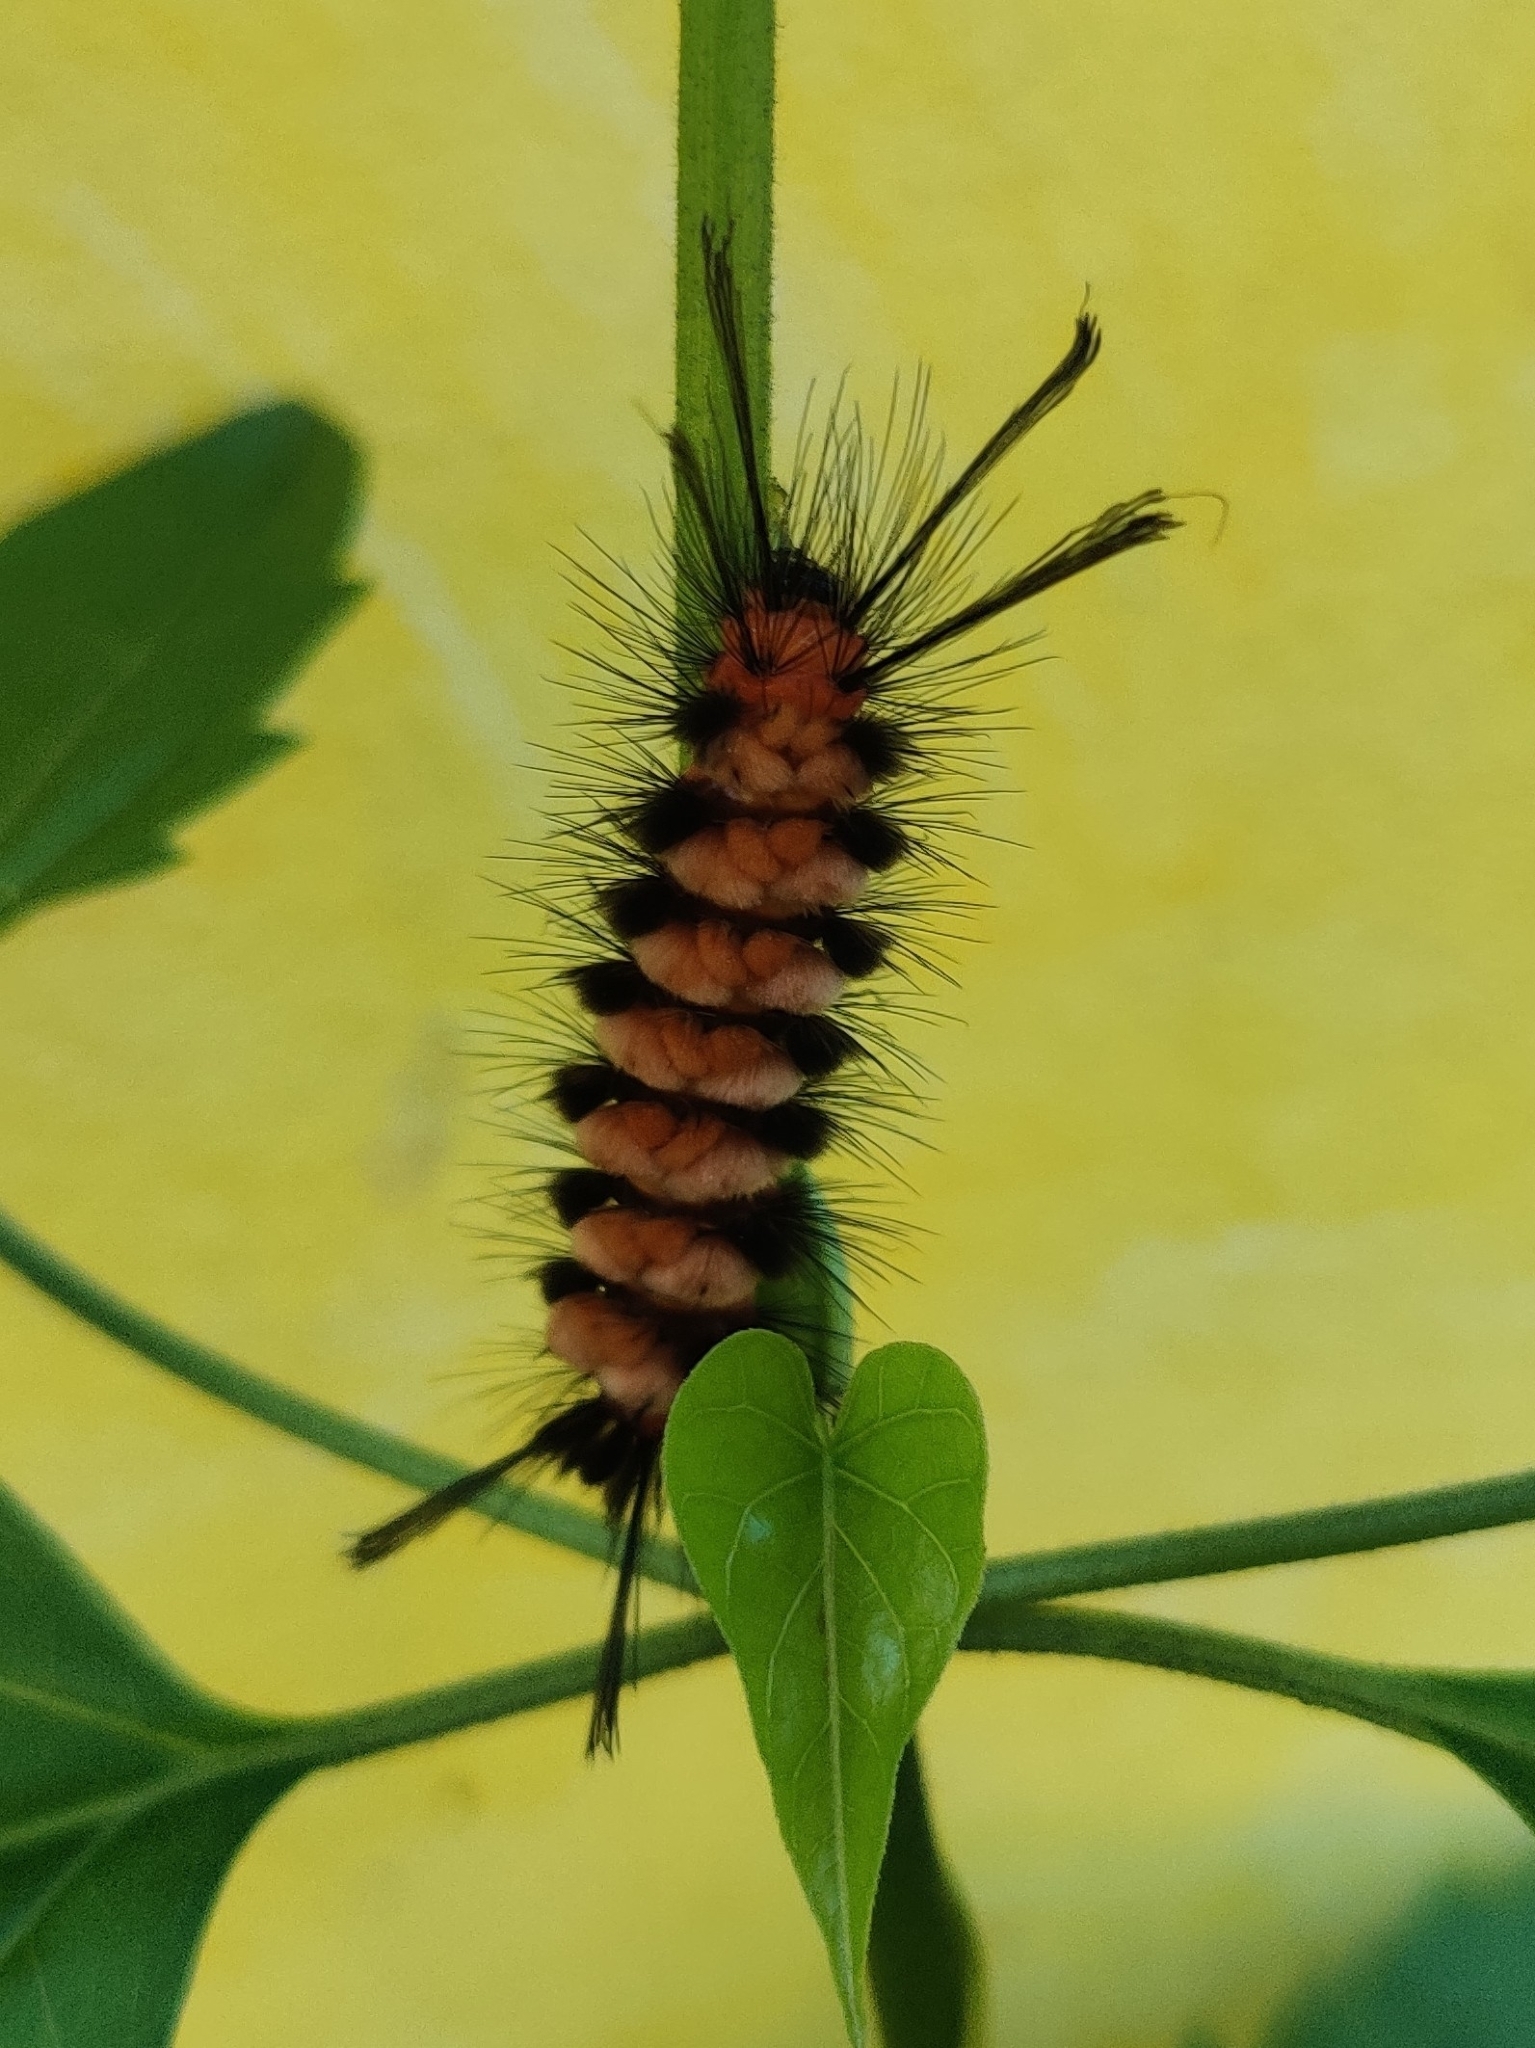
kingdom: Animalia
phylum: Arthropoda
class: Insecta
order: Lepidoptera
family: Erebidae
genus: Euchromia
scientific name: Euchromia polymena
